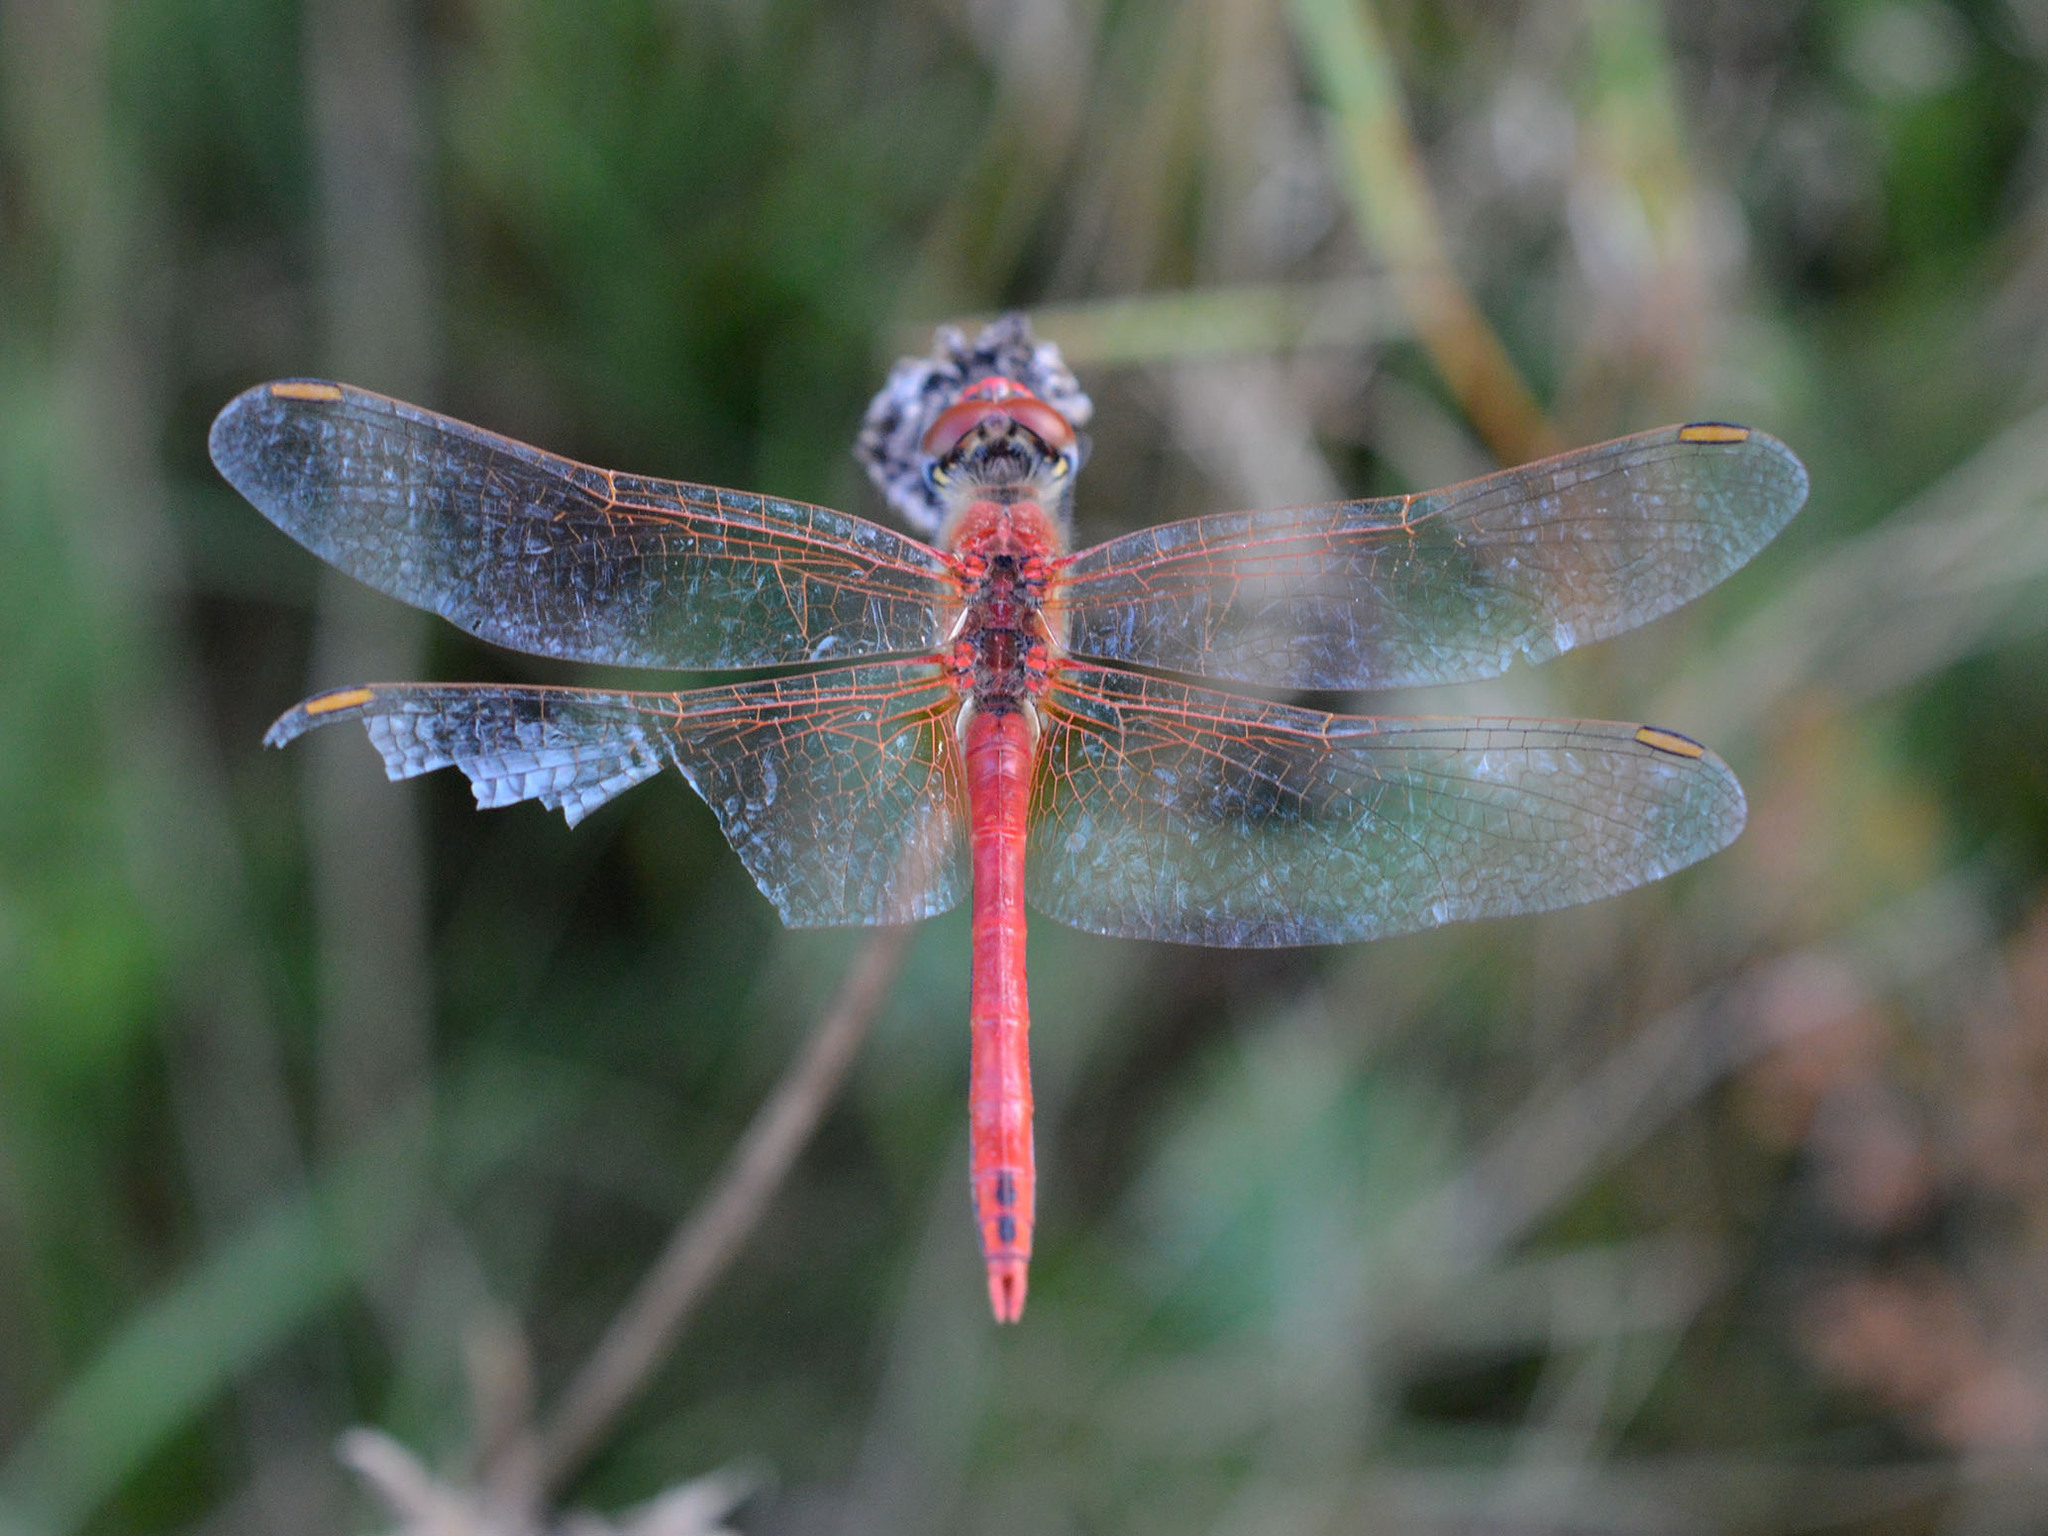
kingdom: Animalia
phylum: Arthropoda
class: Insecta
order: Odonata
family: Libellulidae
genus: Sympetrum
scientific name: Sympetrum fonscolombii
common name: Red-veined darter
